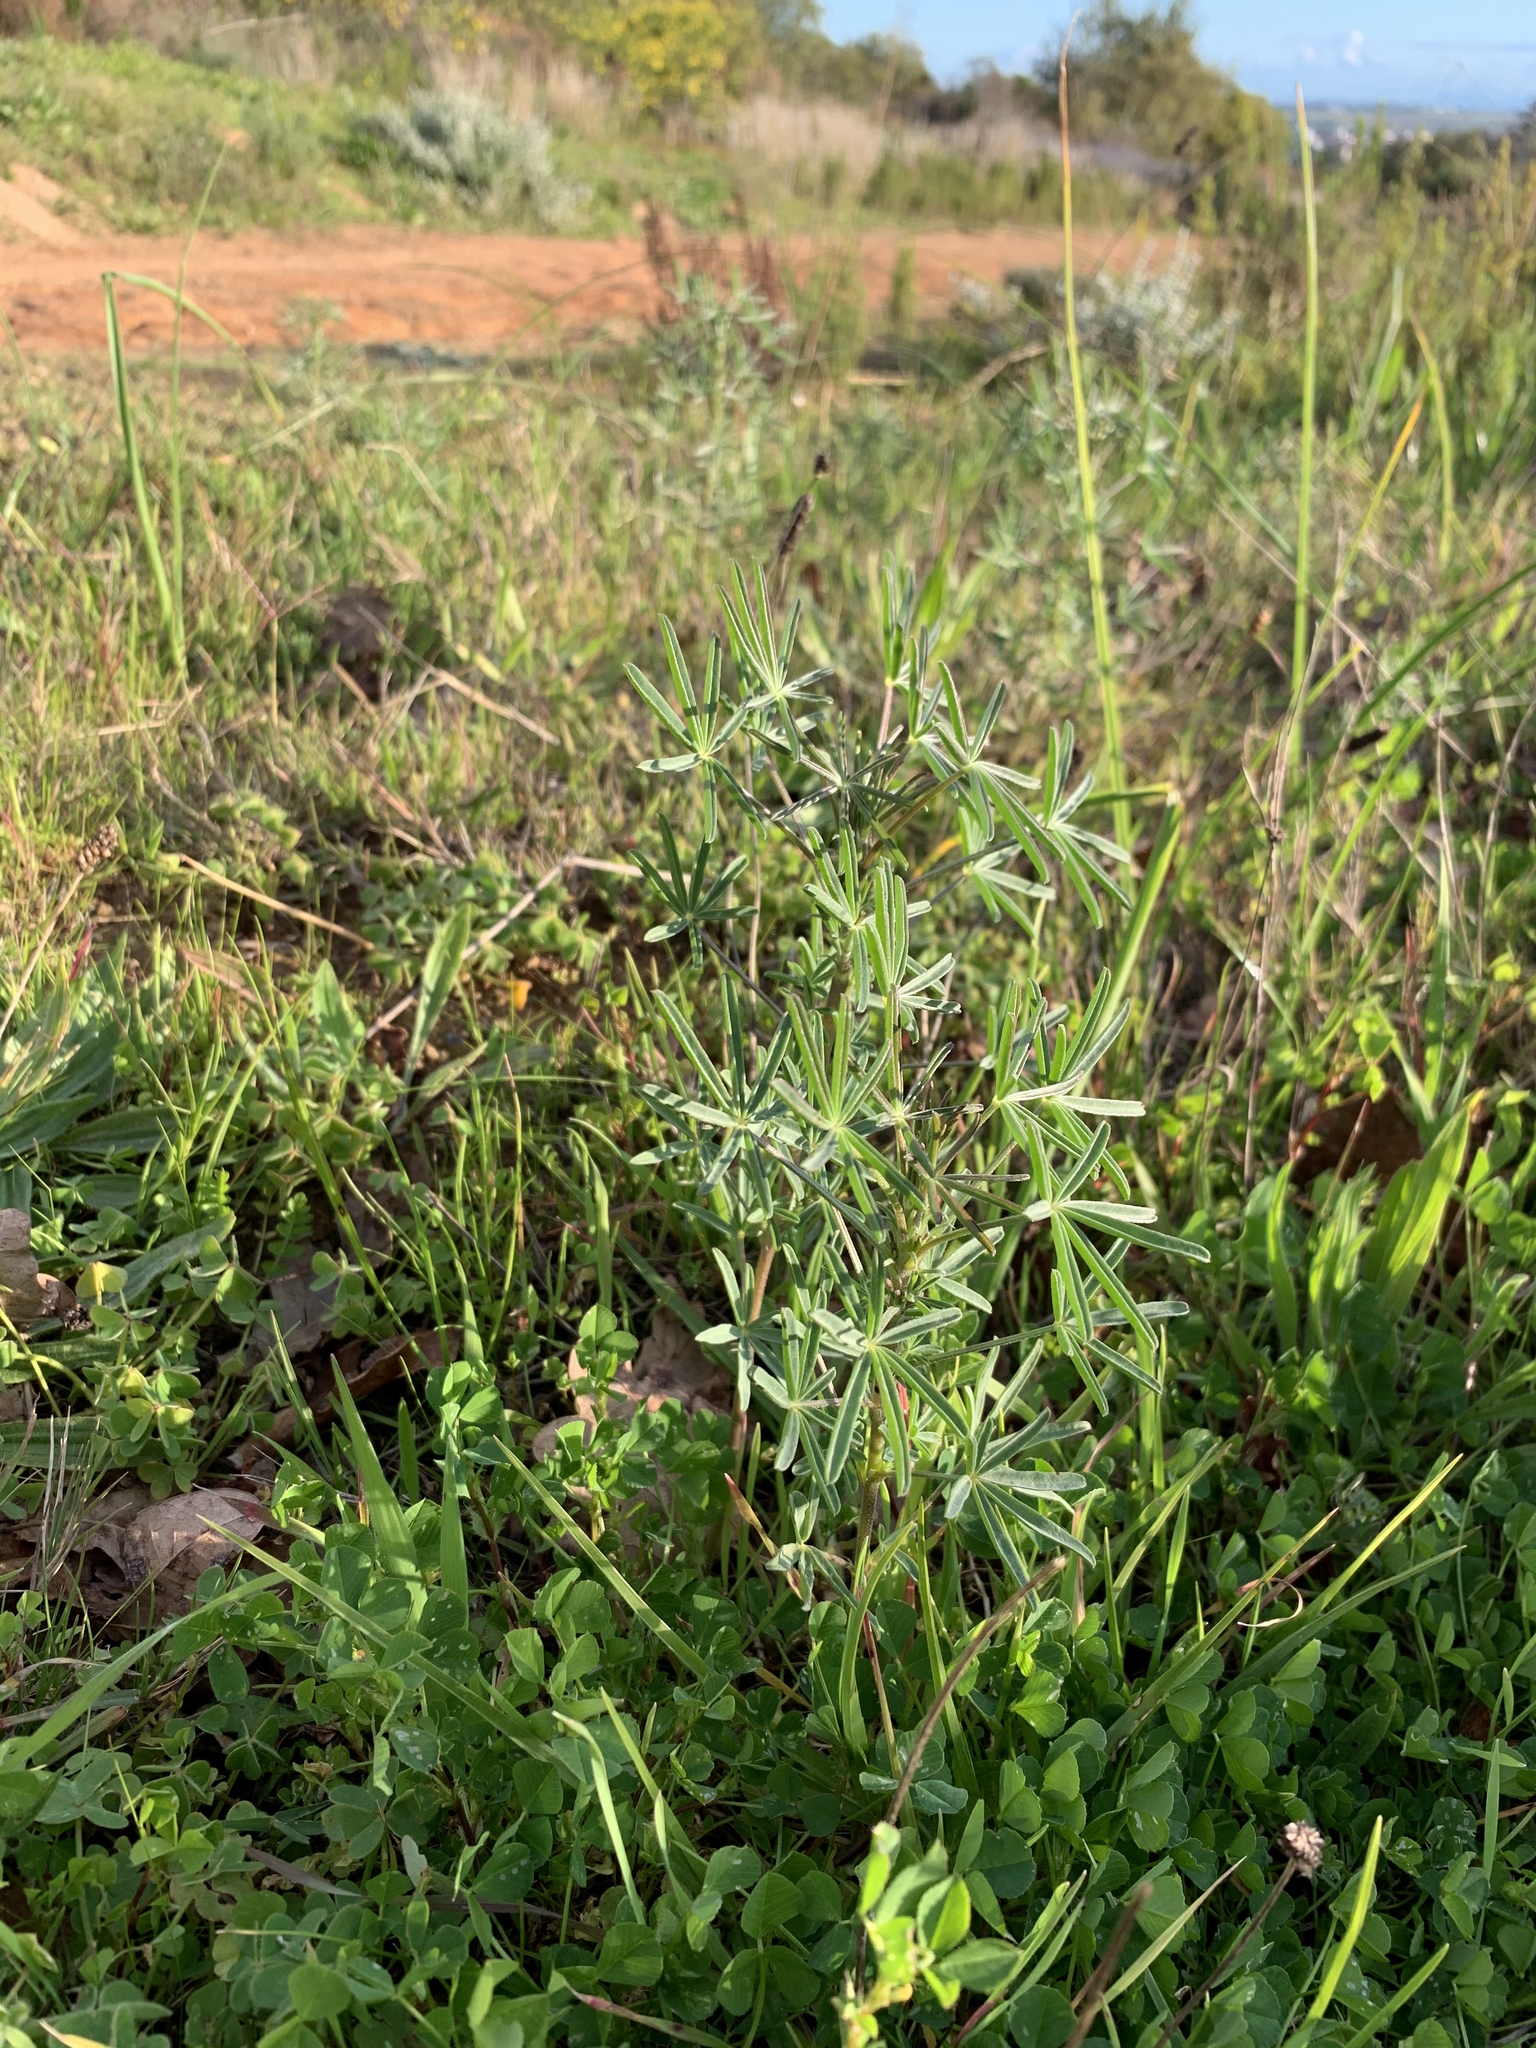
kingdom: Plantae
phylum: Tracheophyta
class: Magnoliopsida
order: Fabales
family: Fabaceae
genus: Lupinus
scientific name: Lupinus angustifolius
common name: Narrow-leaved lupin
